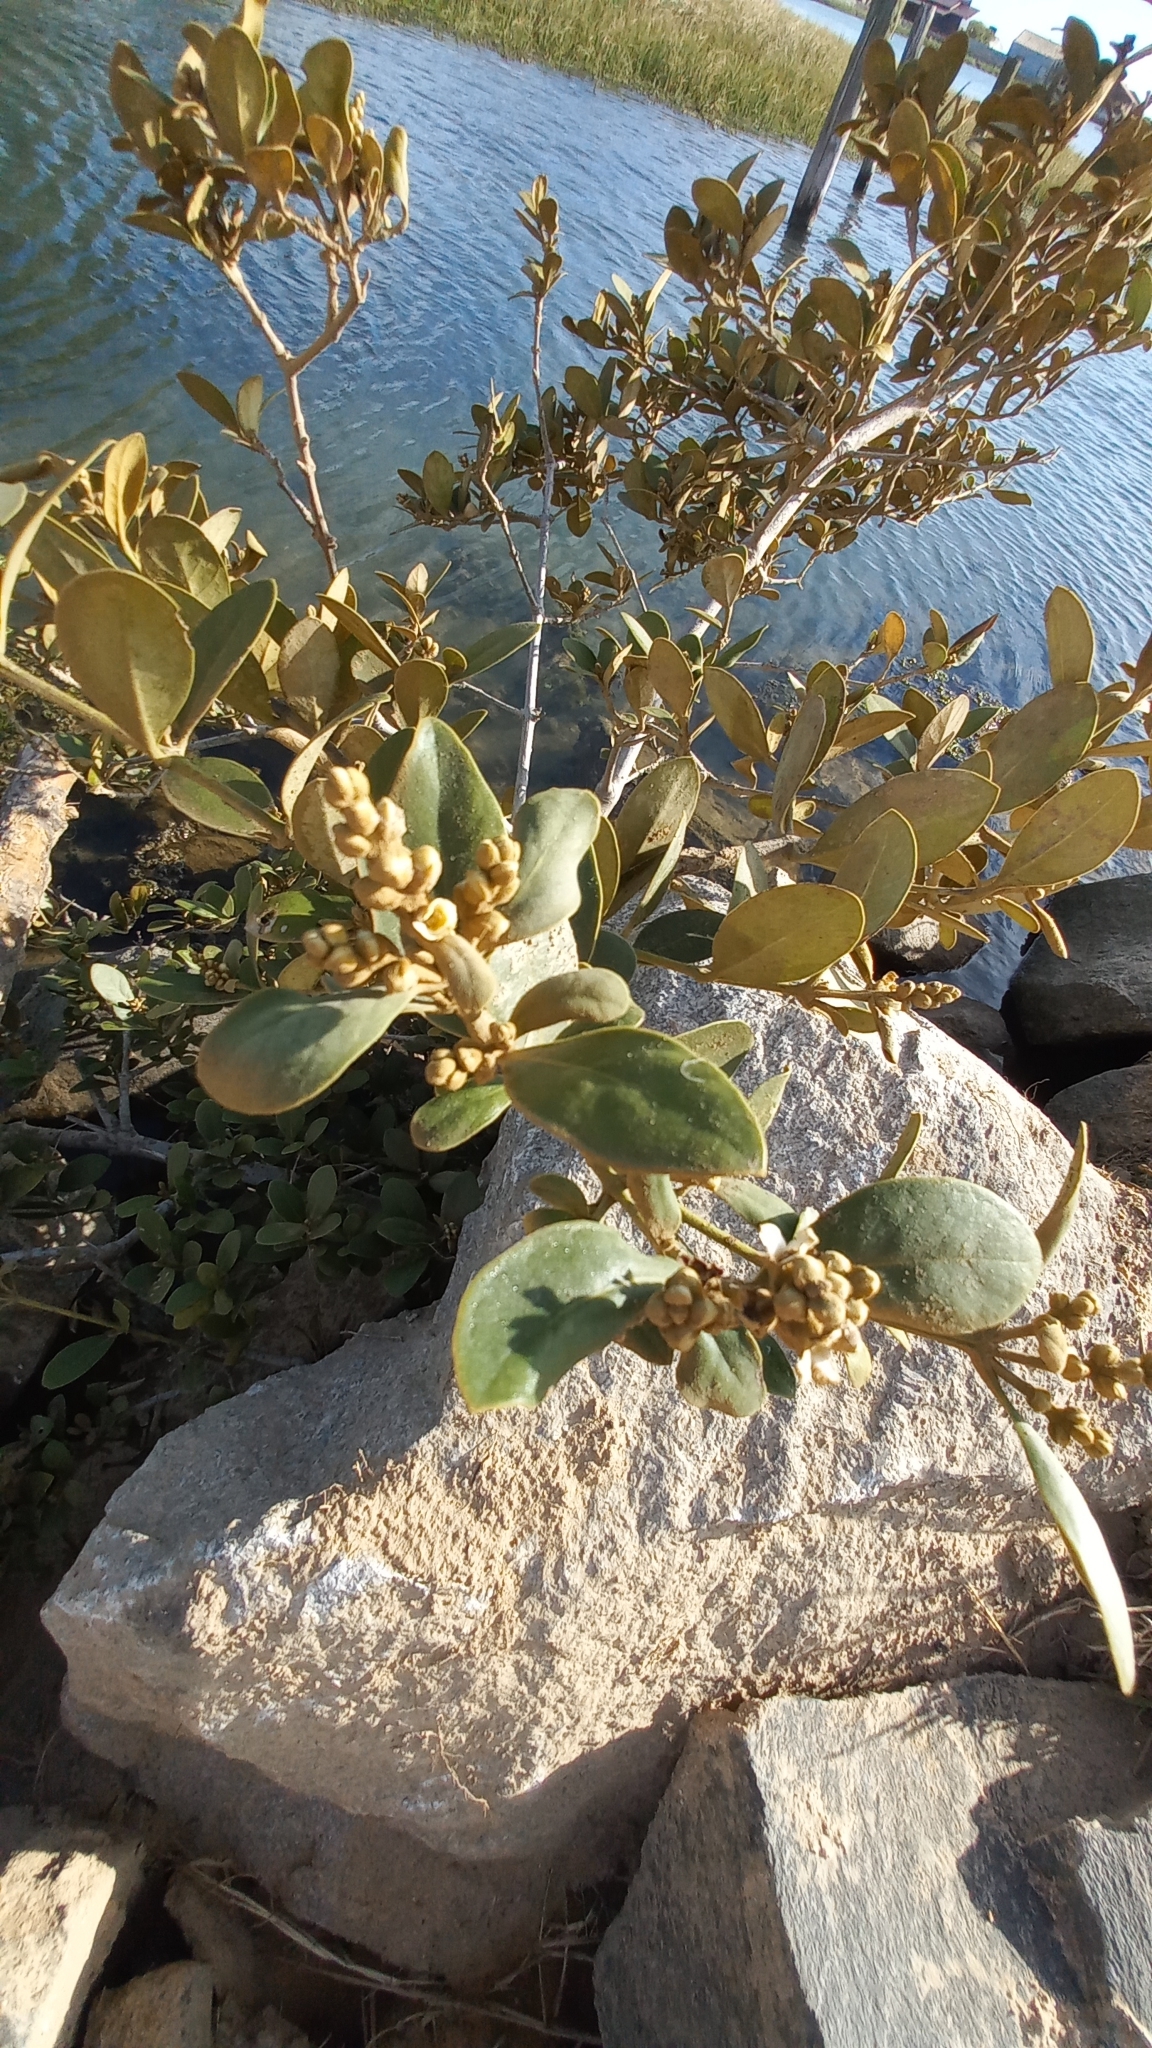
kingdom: Plantae
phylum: Tracheophyta
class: Magnoliopsida
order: Lamiales
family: Acanthaceae
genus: Avicennia
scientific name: Avicennia schaueriana
